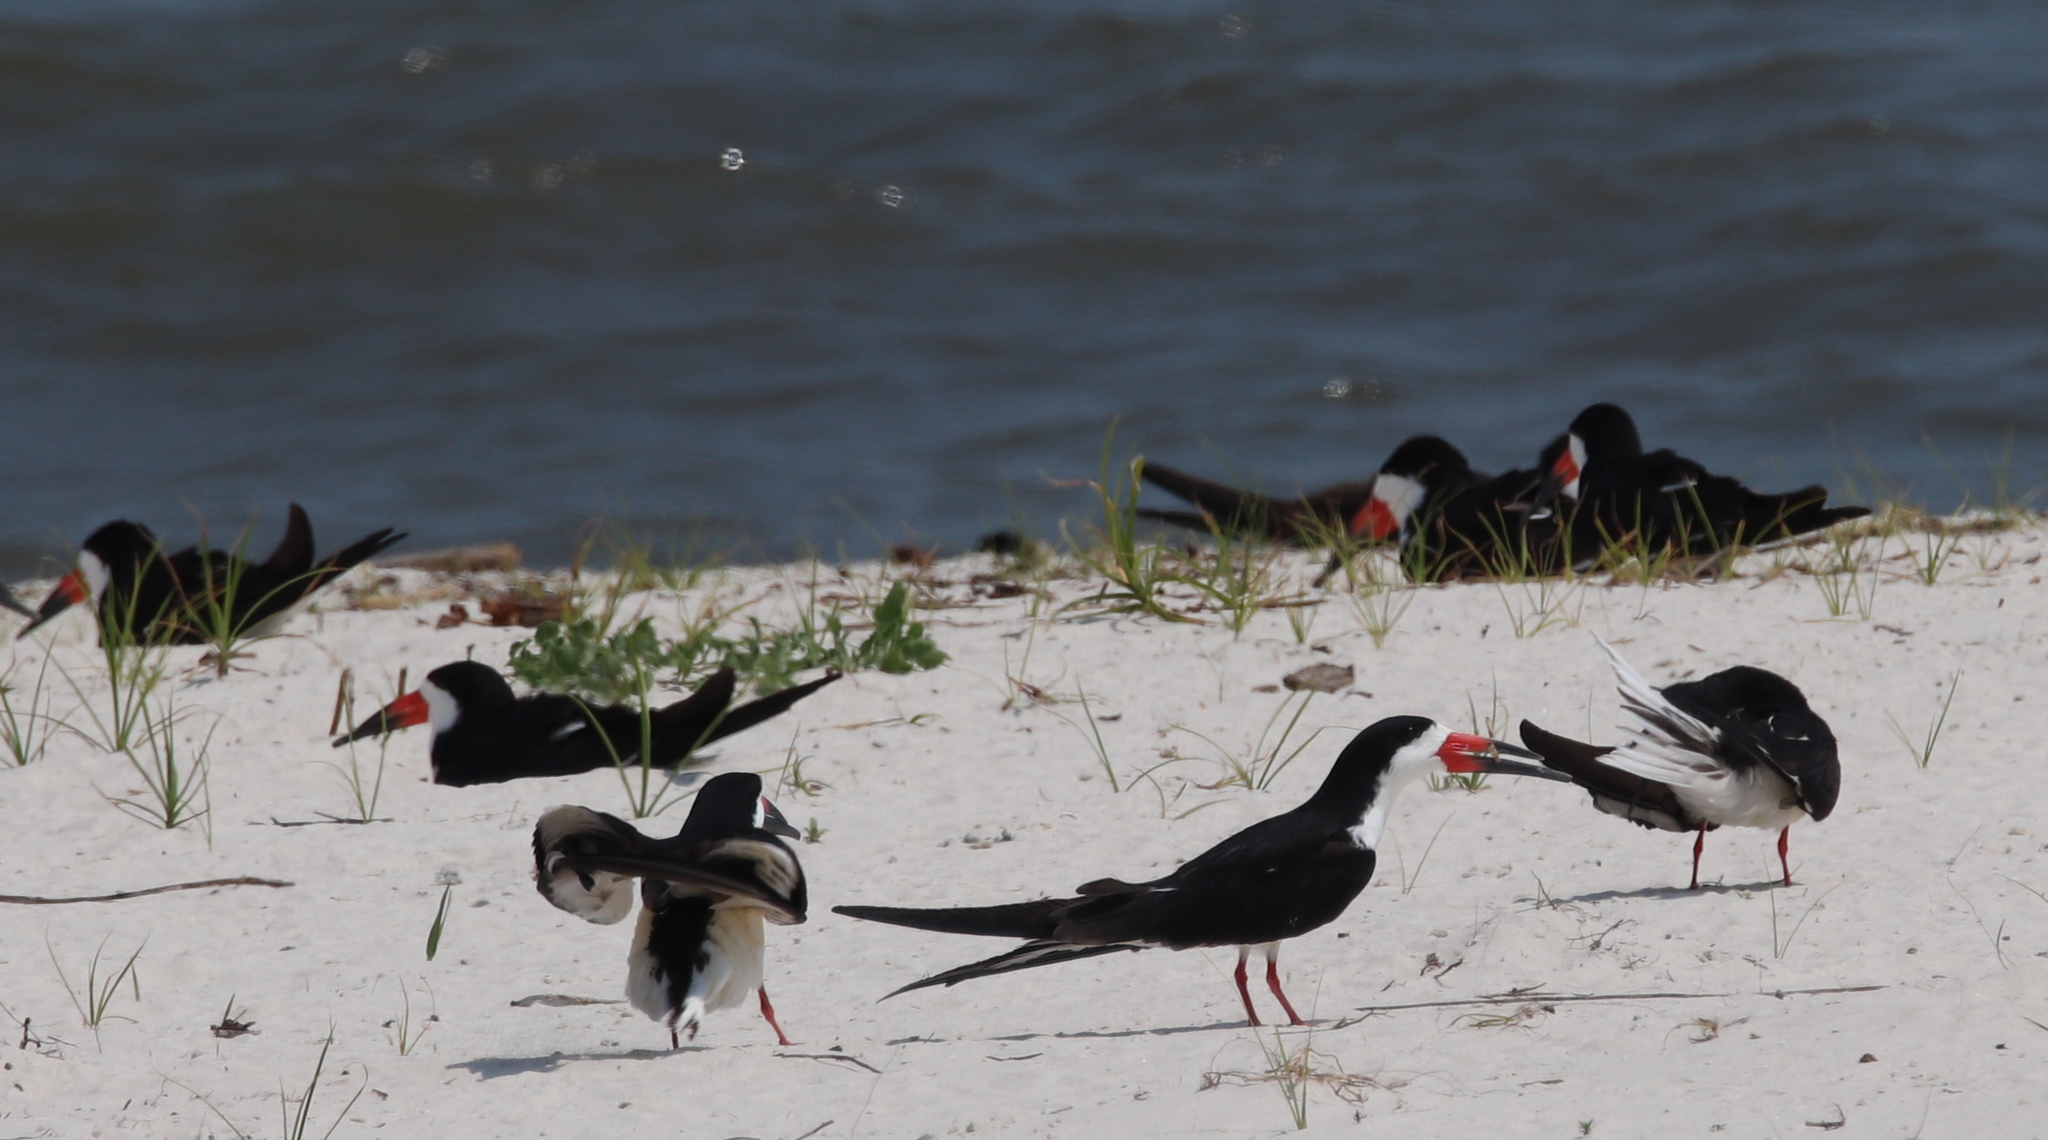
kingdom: Animalia
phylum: Chordata
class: Aves
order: Charadriiformes
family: Laridae
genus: Rynchops
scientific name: Rynchops niger
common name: Black skimmer
